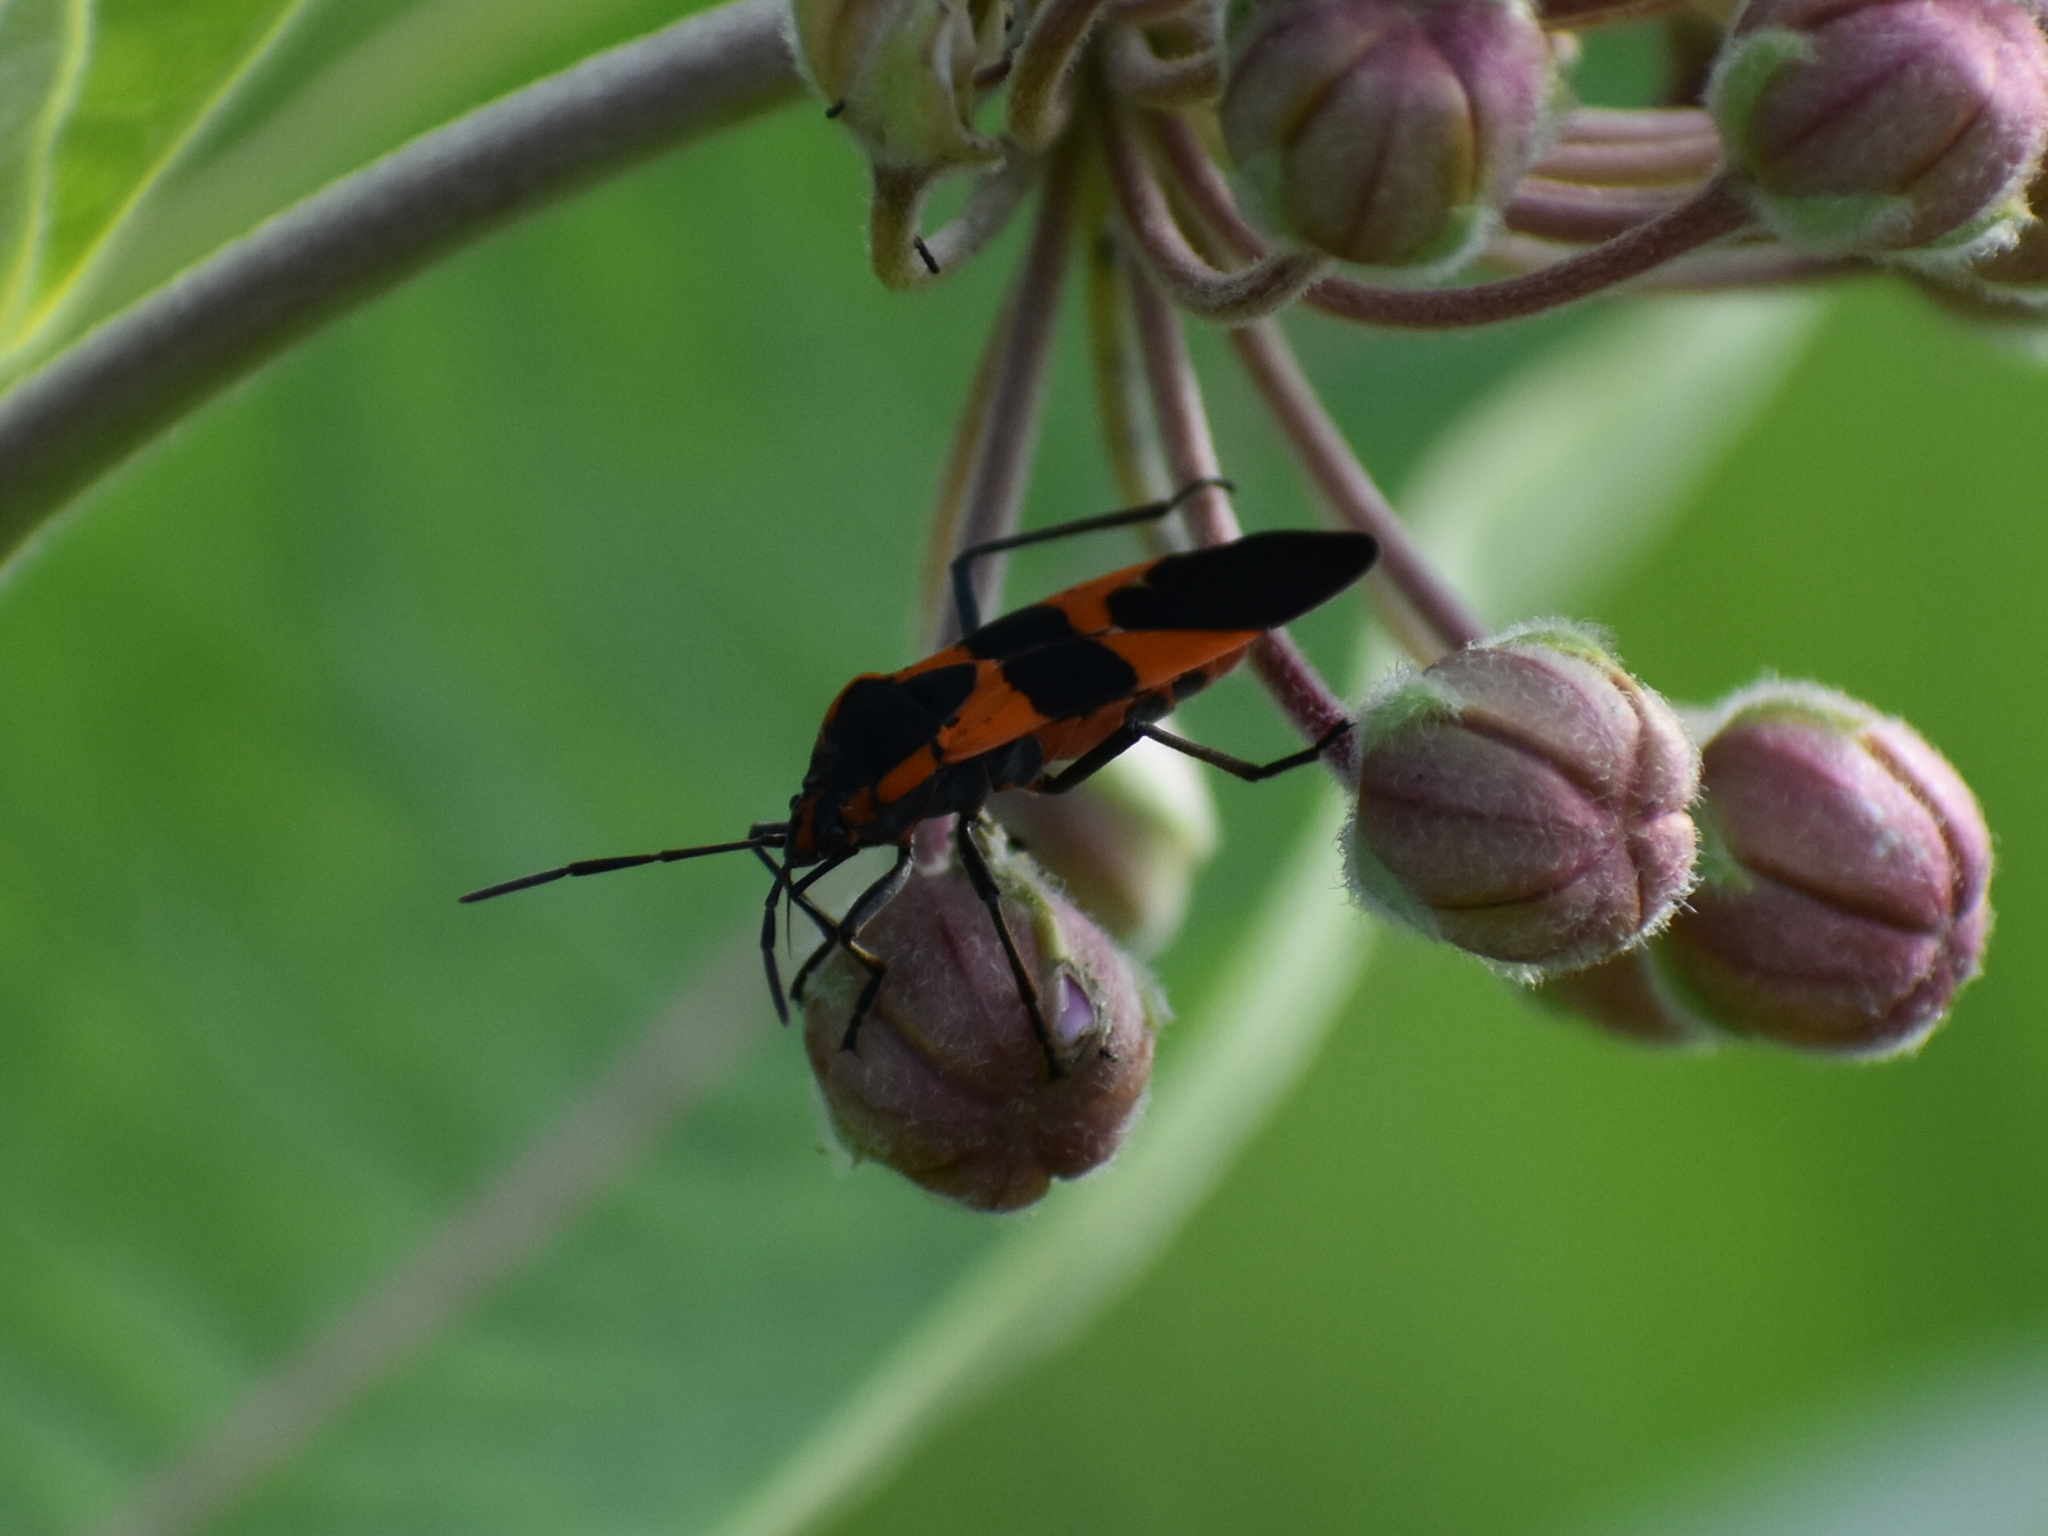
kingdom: Animalia
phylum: Arthropoda
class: Insecta
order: Hemiptera
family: Lygaeidae
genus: Oncopeltus
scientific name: Oncopeltus fasciatus
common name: Large milkweed bug
